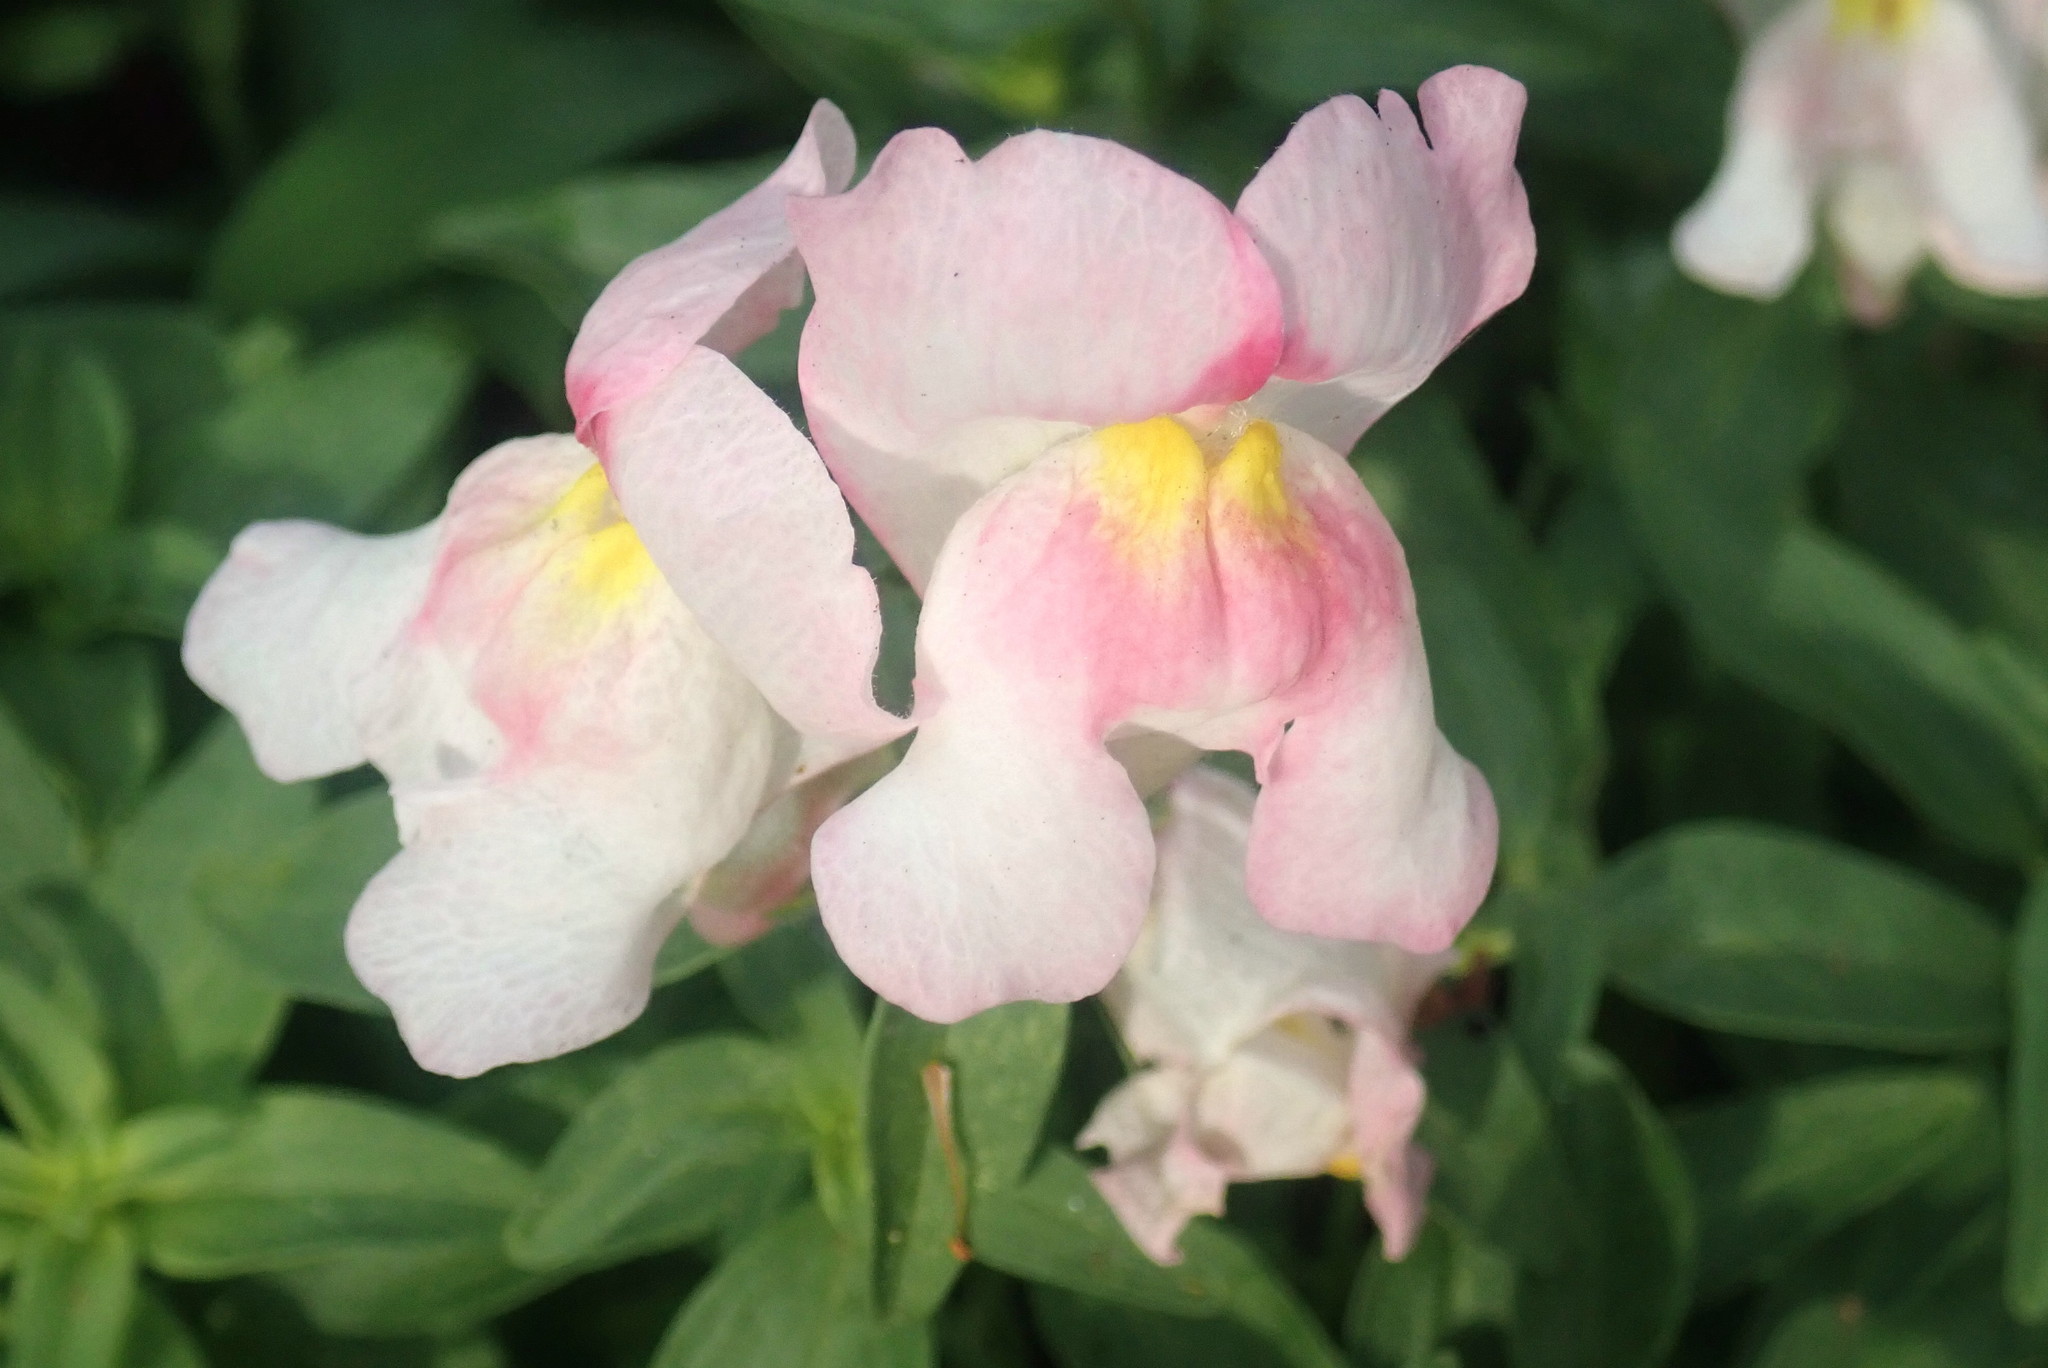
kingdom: Plantae
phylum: Tracheophyta
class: Magnoliopsida
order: Lamiales
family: Plantaginaceae
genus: Antirrhinum
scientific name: Antirrhinum majus
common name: Snapdragon
